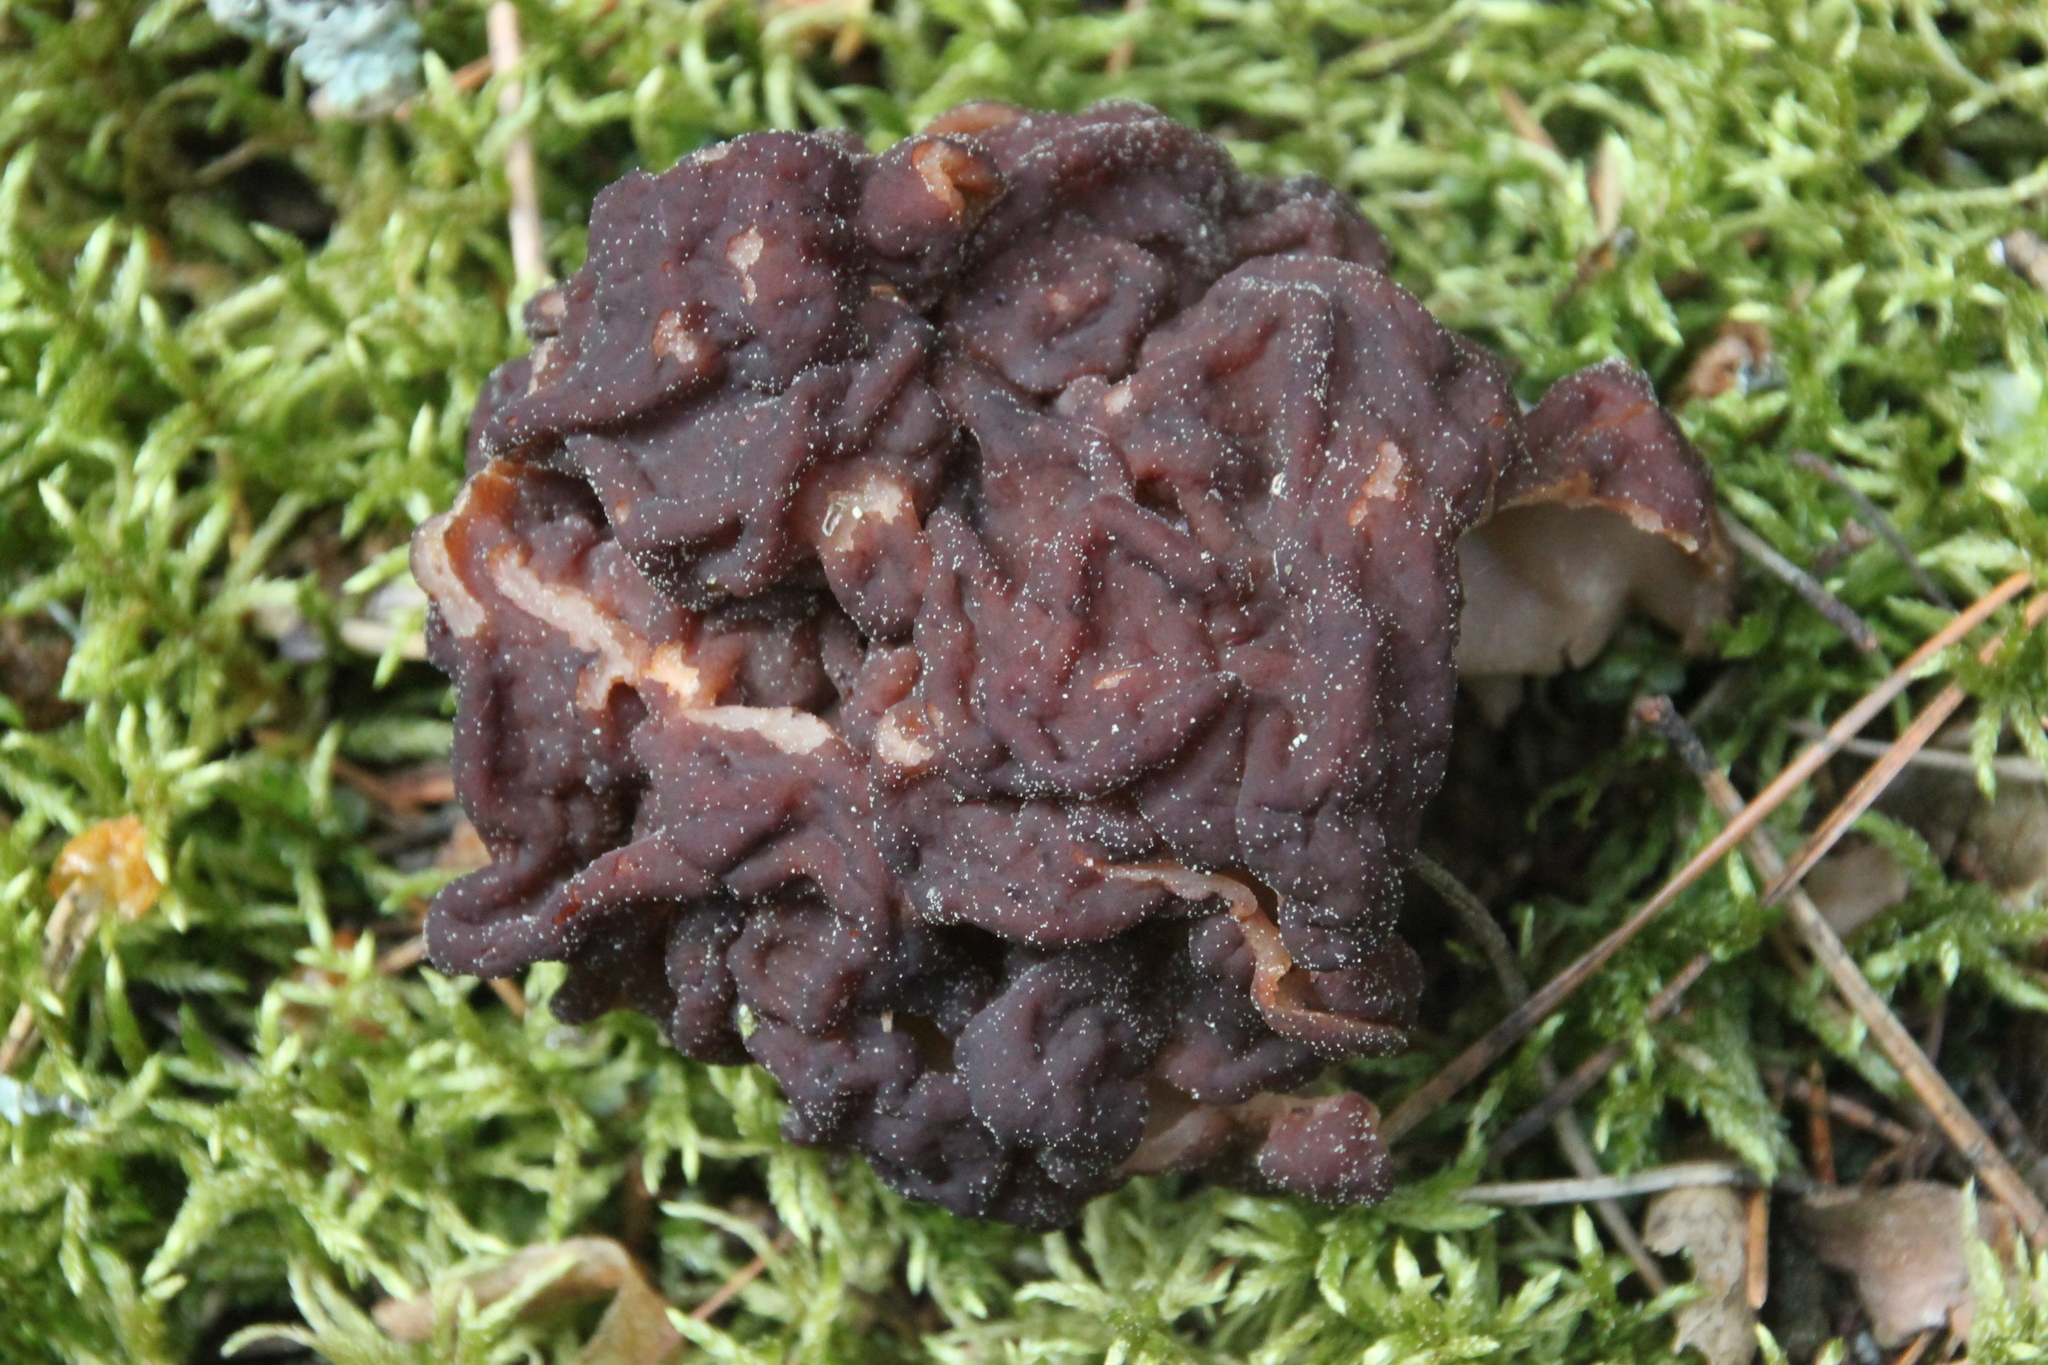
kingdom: Fungi
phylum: Ascomycota
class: Pezizomycetes
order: Pezizales
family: Discinaceae
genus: Gyromitra
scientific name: Gyromitra esculenta
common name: False morel
